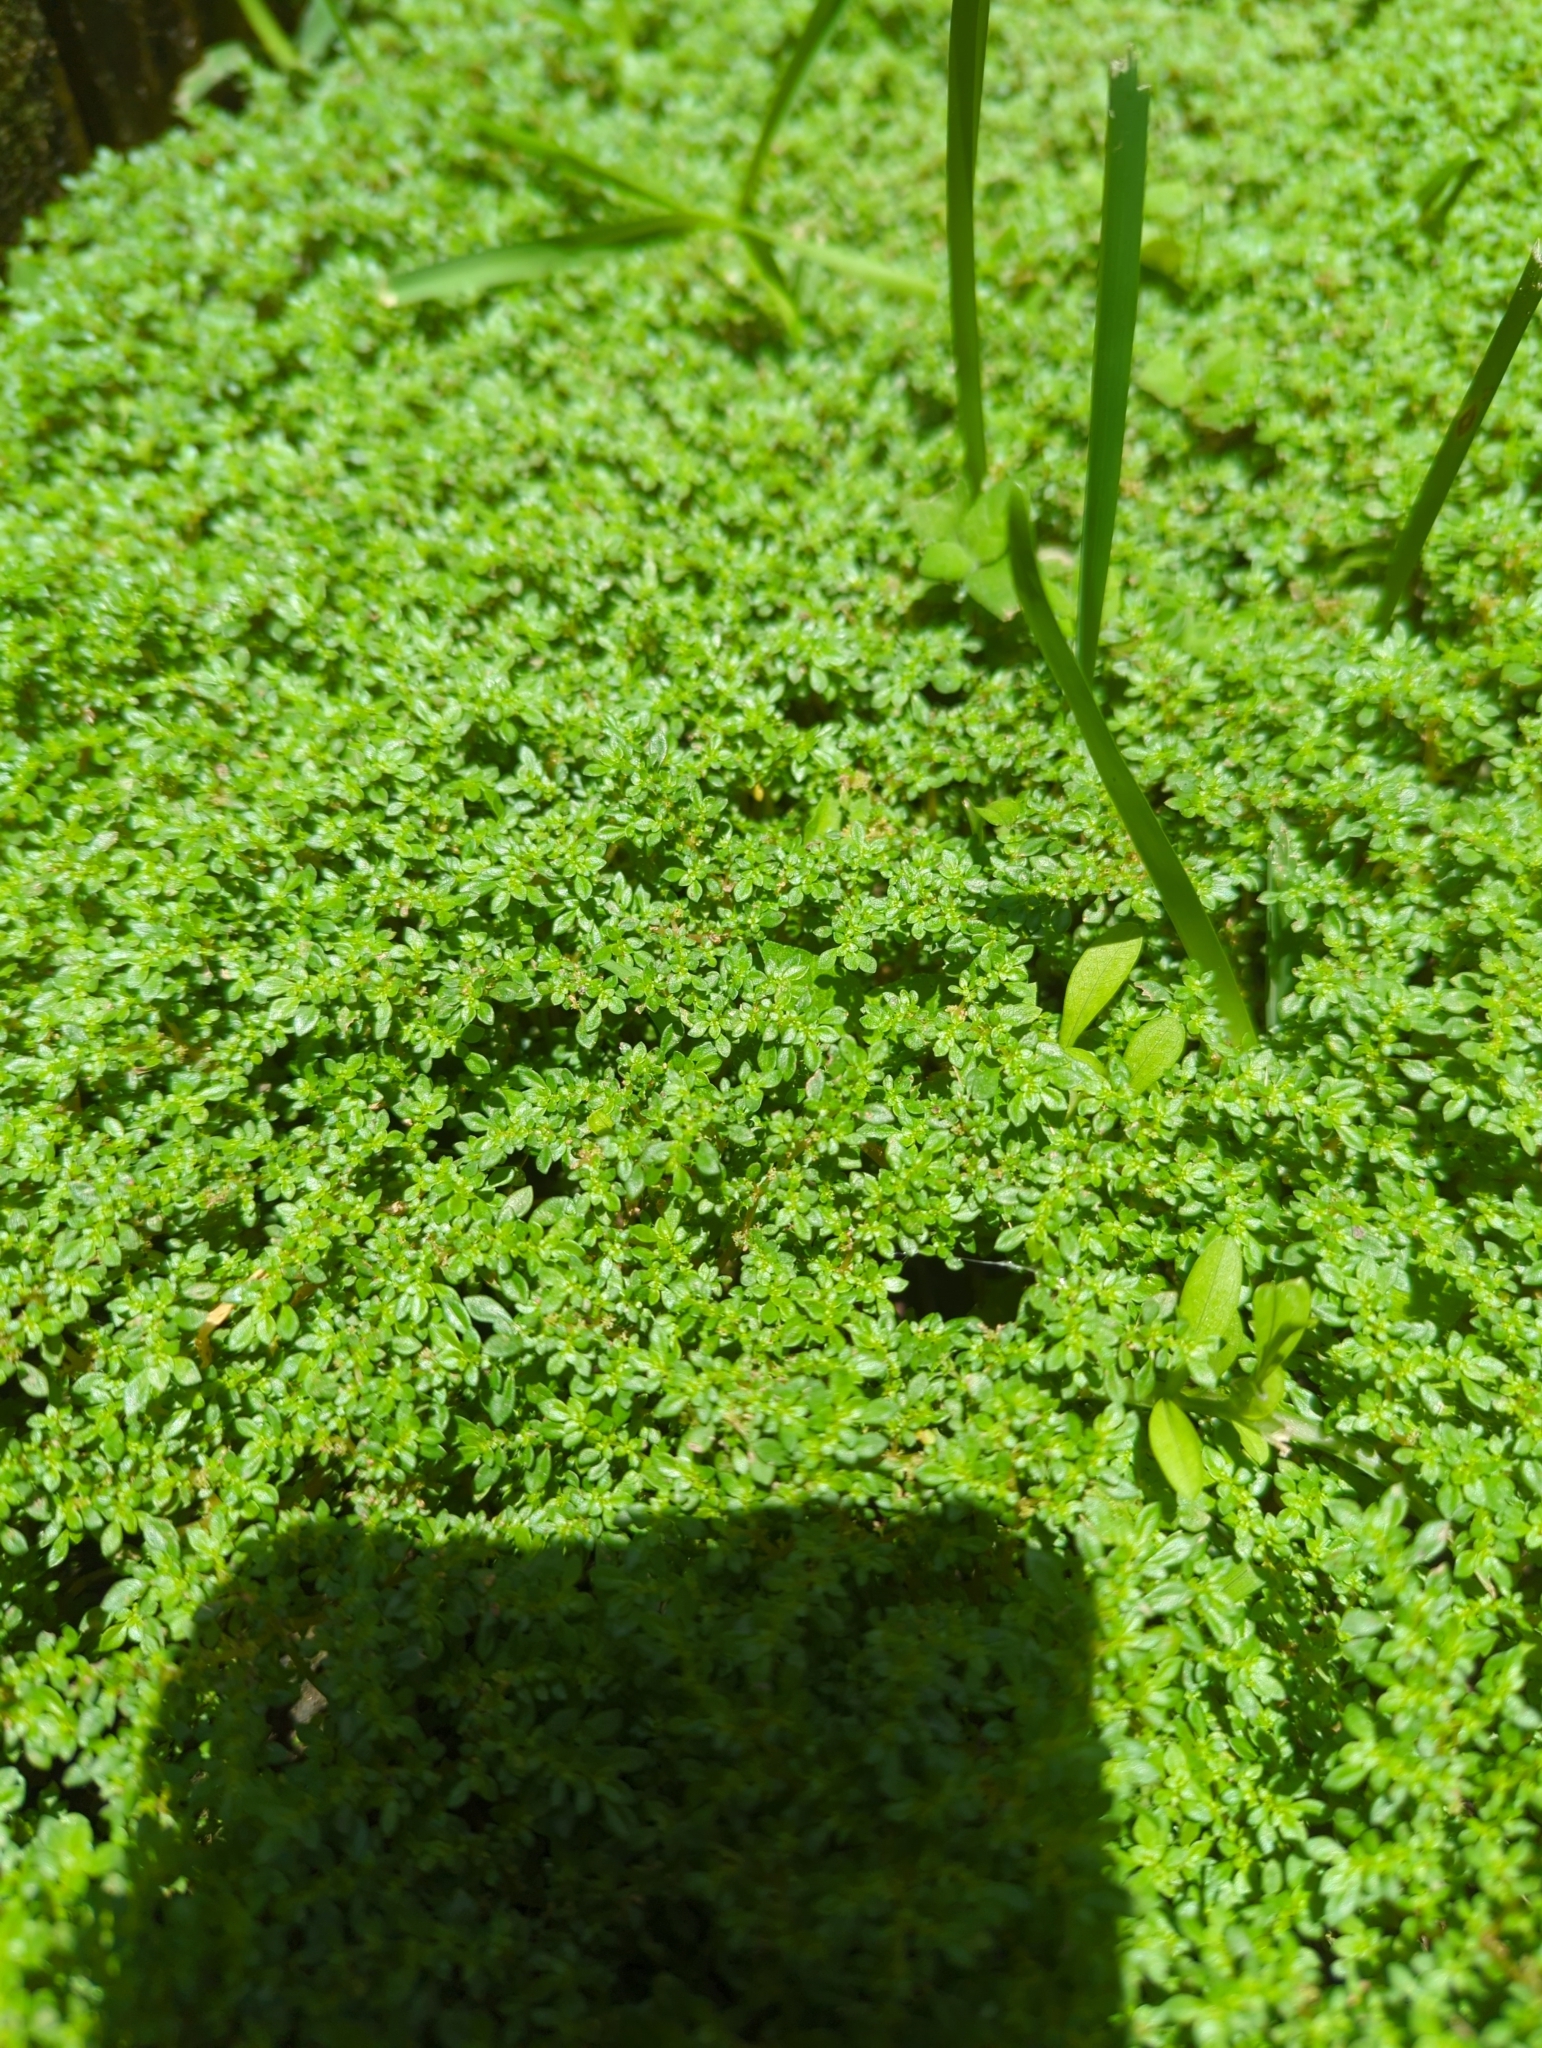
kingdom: Plantae
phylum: Tracheophyta
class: Magnoliopsida
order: Rosales
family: Urticaceae
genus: Pilea
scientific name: Pilea microphylla
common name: Artillery-plant
